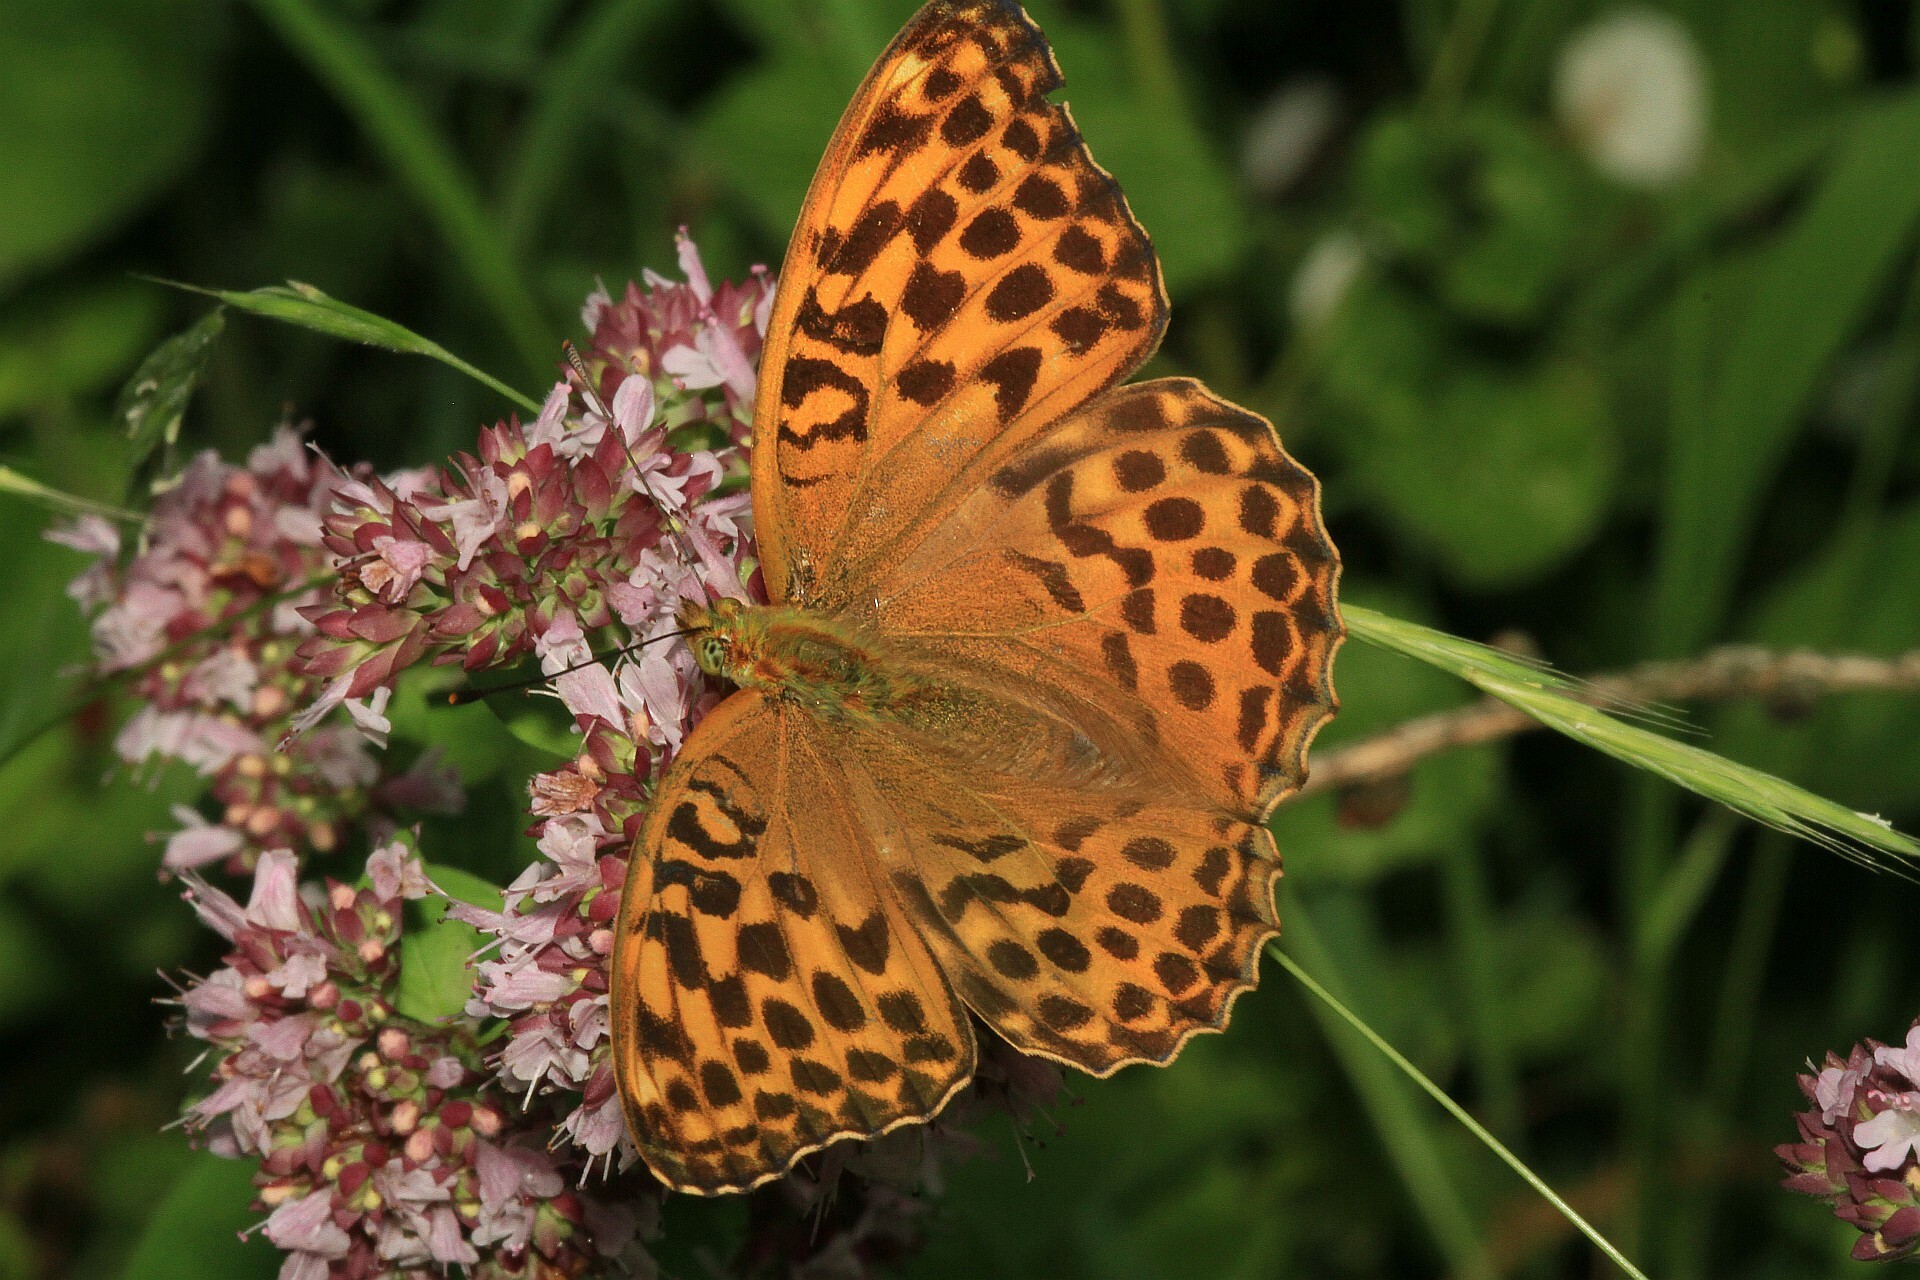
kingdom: Animalia
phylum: Arthropoda
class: Insecta
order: Lepidoptera
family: Nymphalidae
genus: Argynnis
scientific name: Argynnis paphia
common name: Silver-washed fritillary
